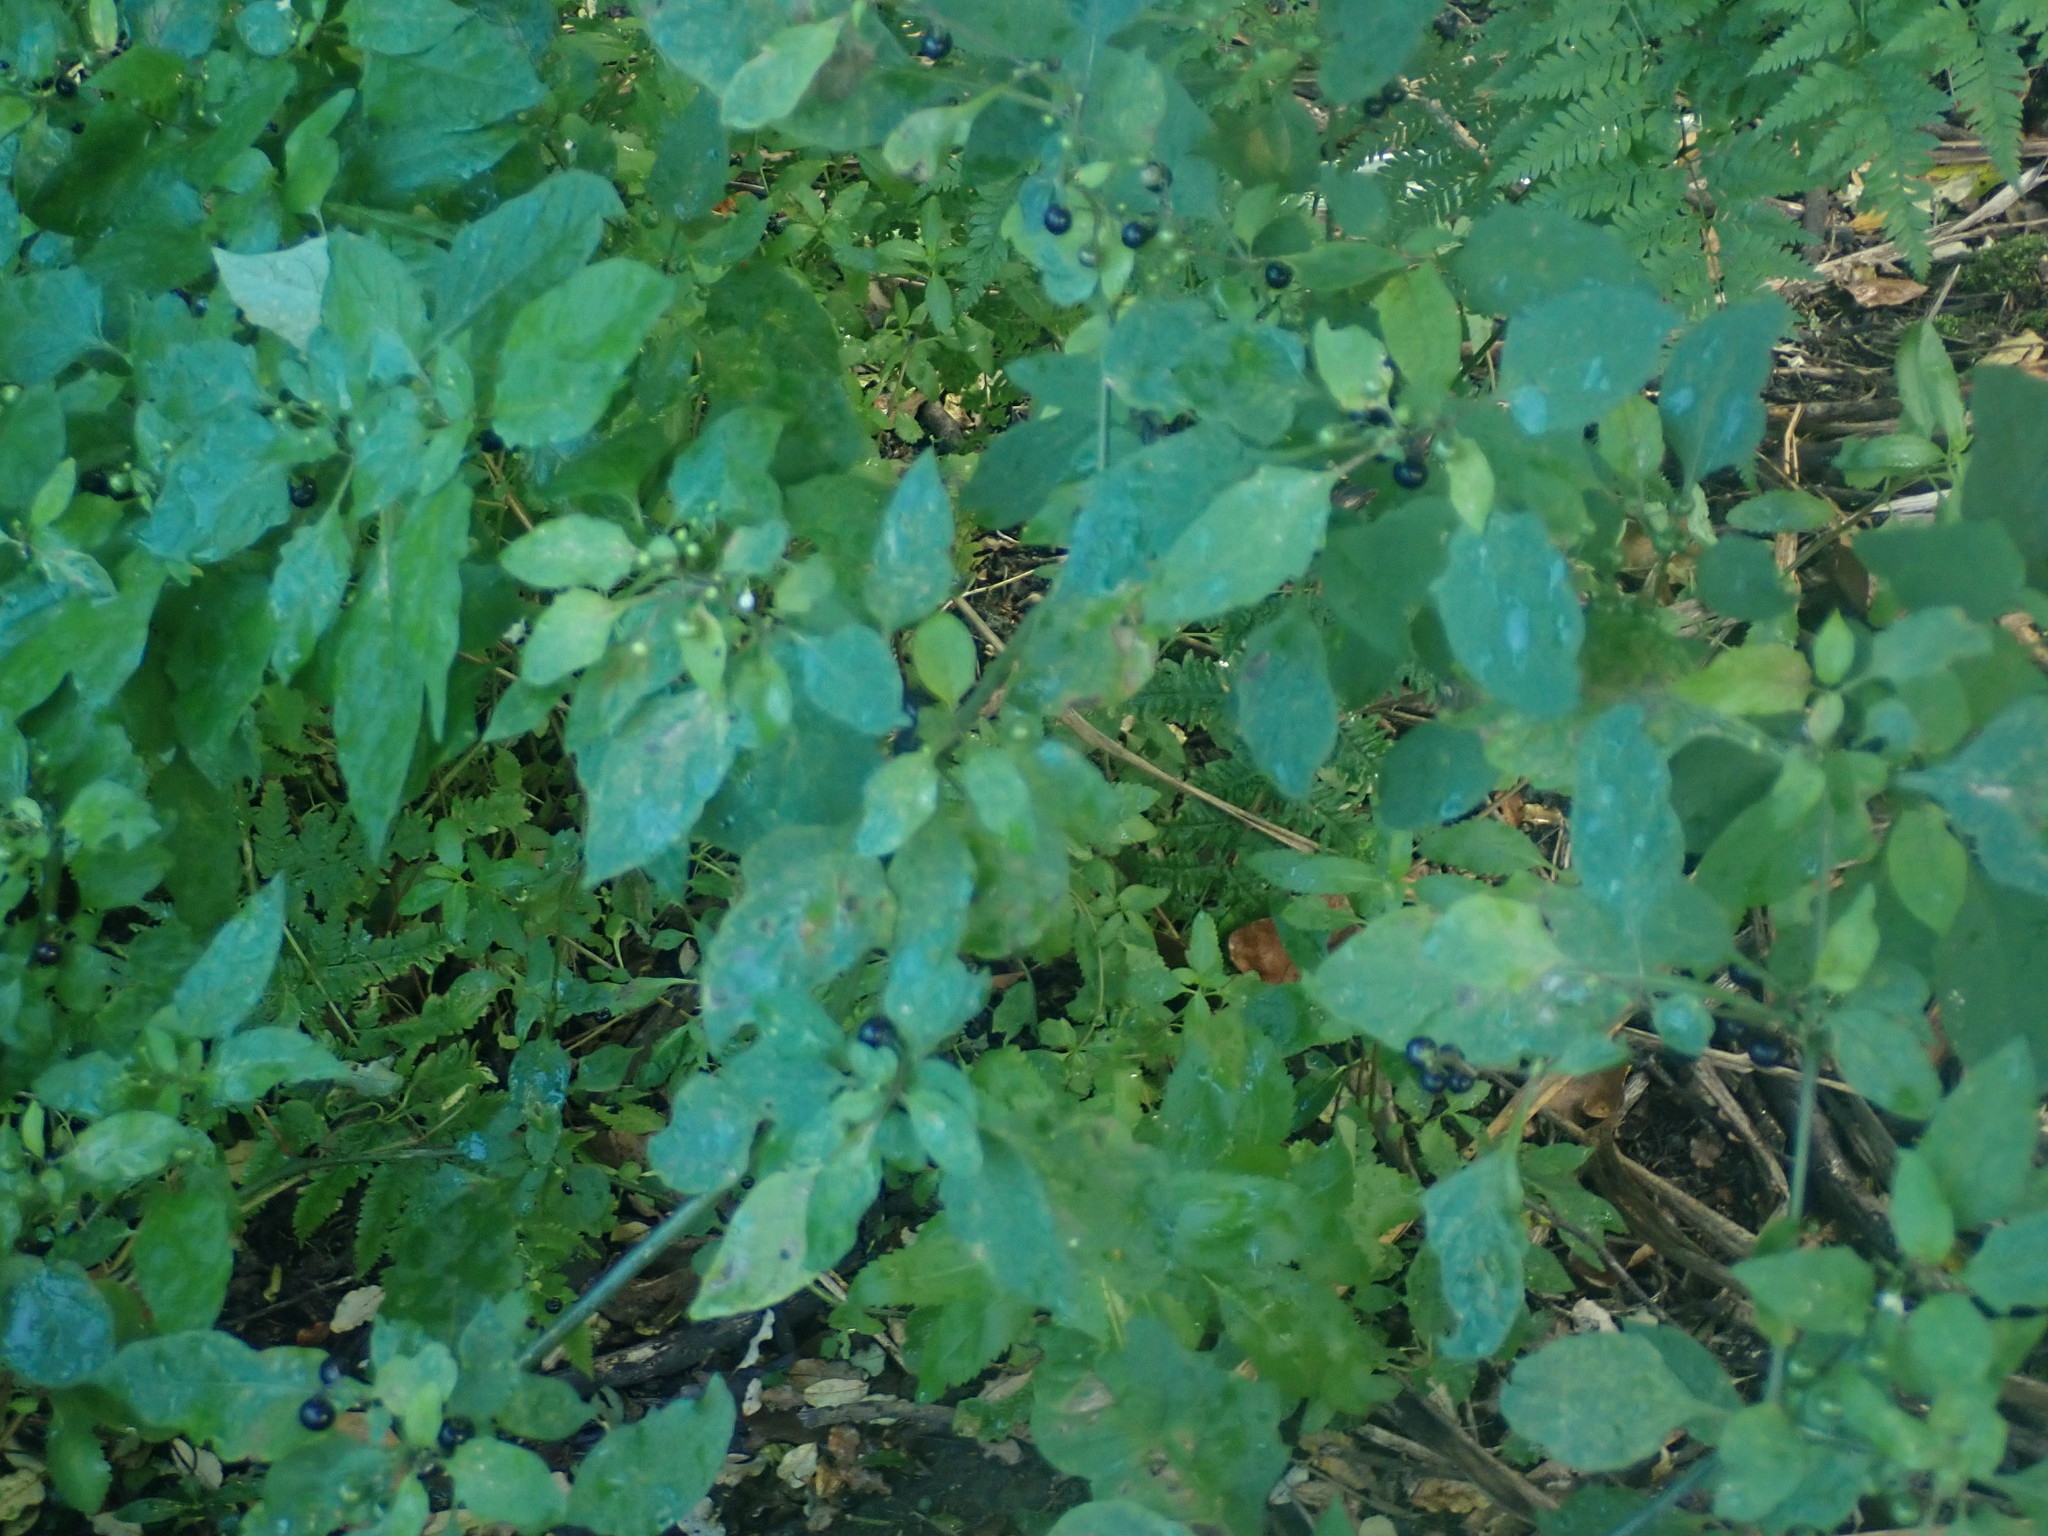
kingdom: Plantae
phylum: Tracheophyta
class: Magnoliopsida
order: Solanales
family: Solanaceae
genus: Solanum
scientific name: Solanum americanum
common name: American black nightshade
